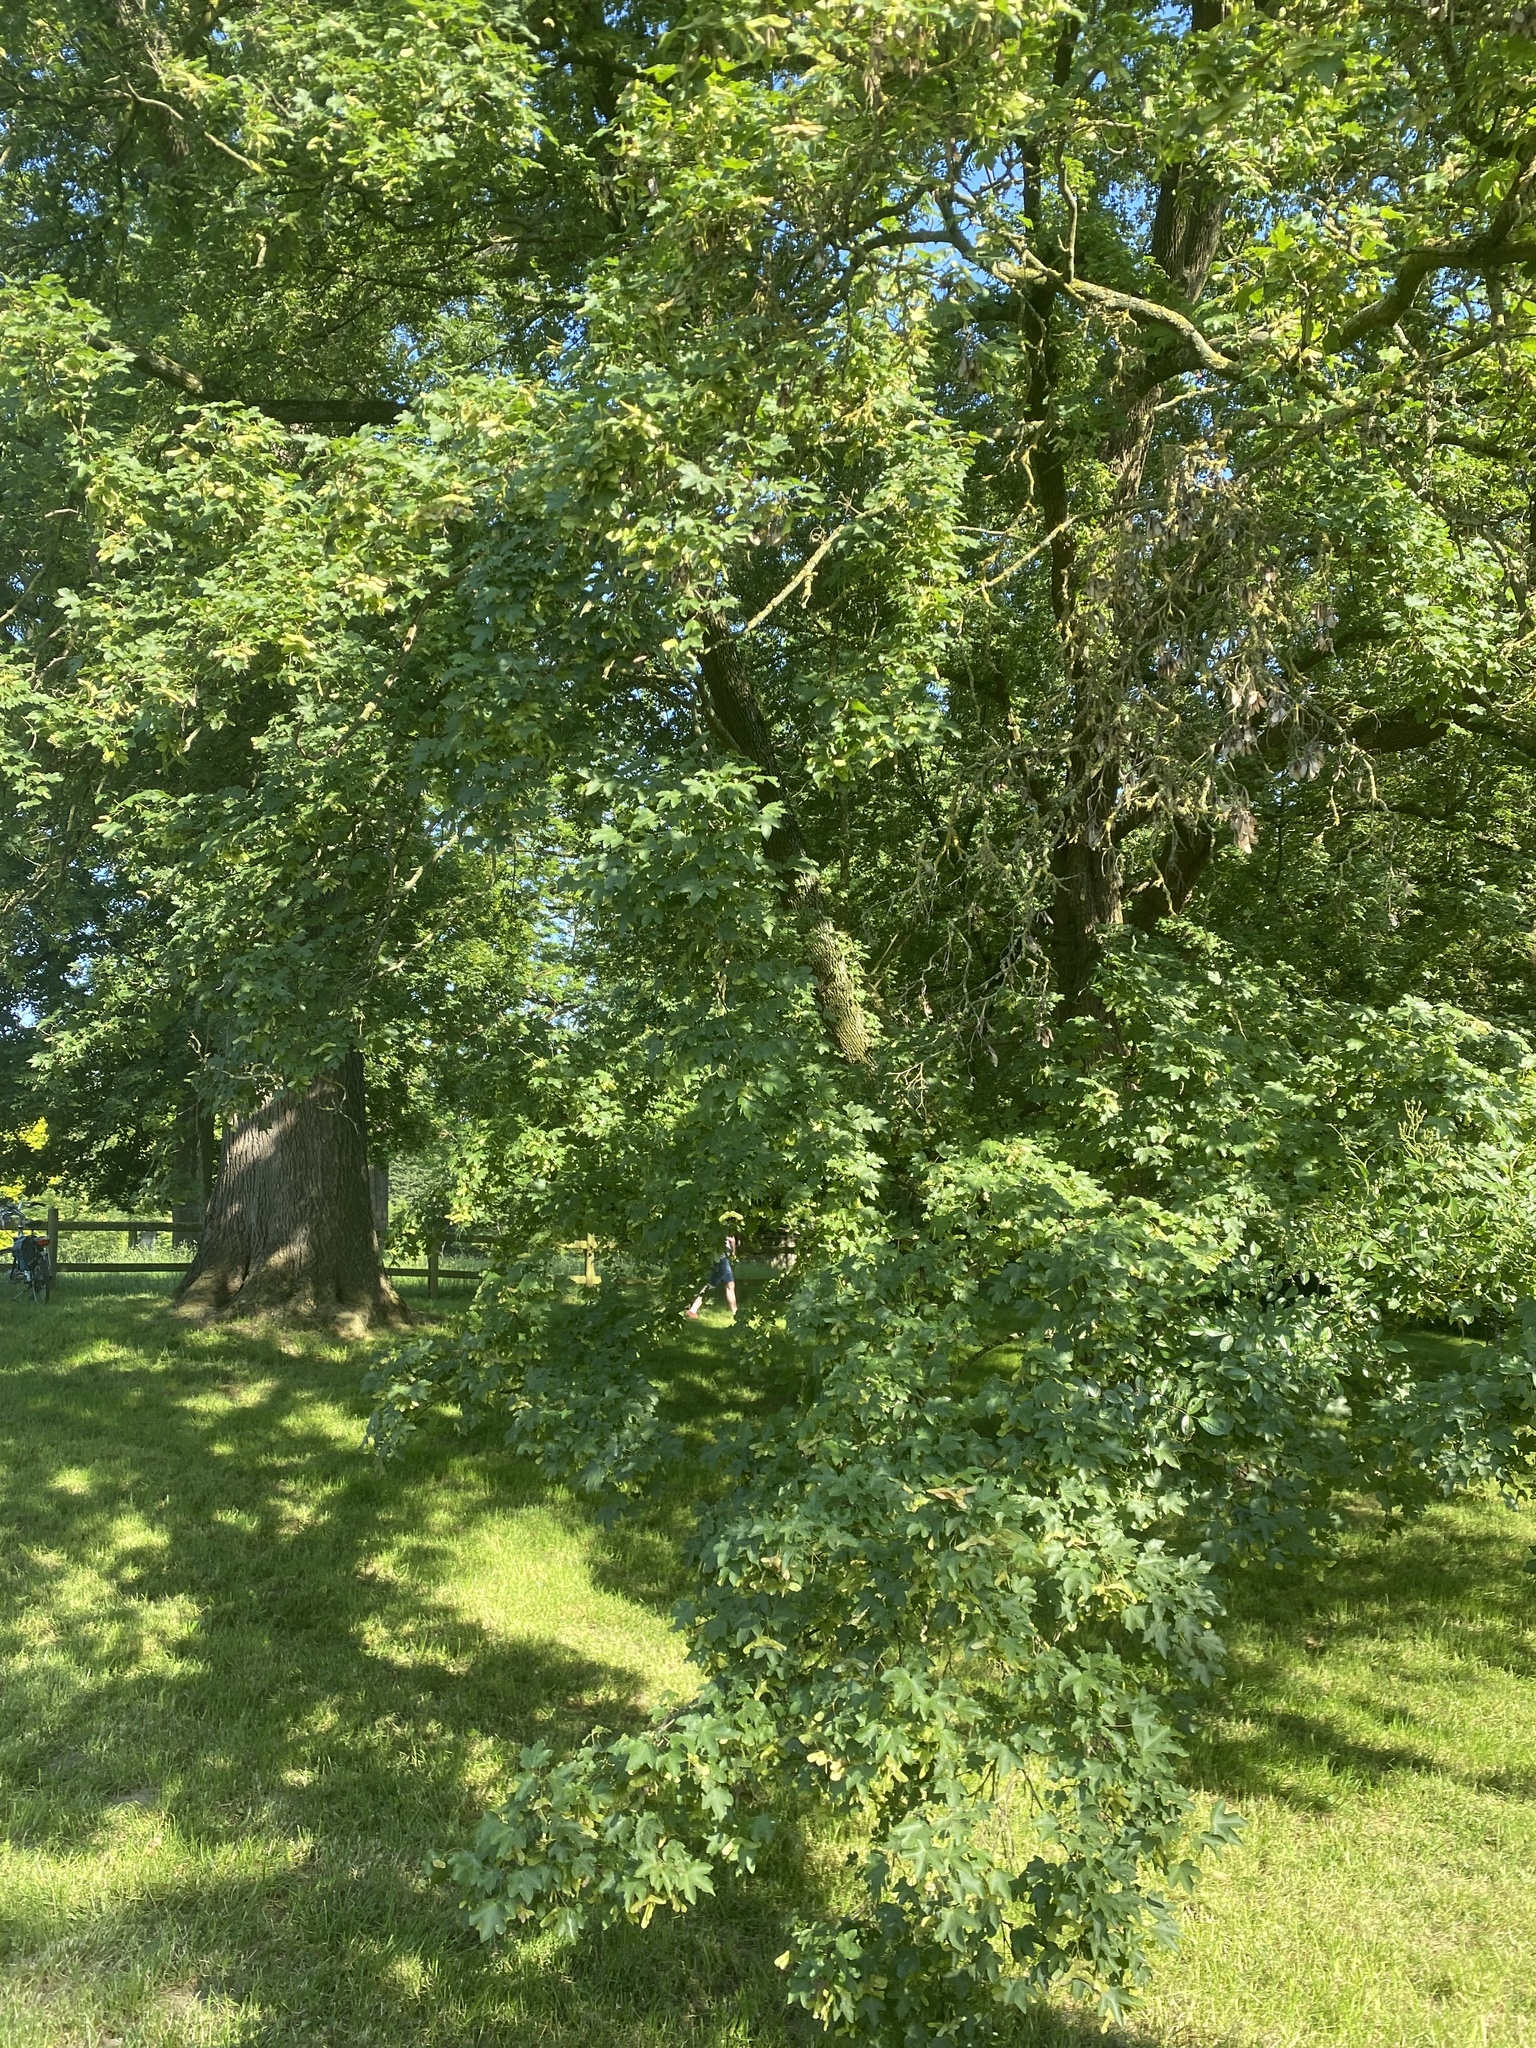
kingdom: Animalia
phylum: Arthropoda
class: Arachnida
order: Trombidiformes
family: Eriophyidae
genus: Aceria
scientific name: Aceria macrochelus
